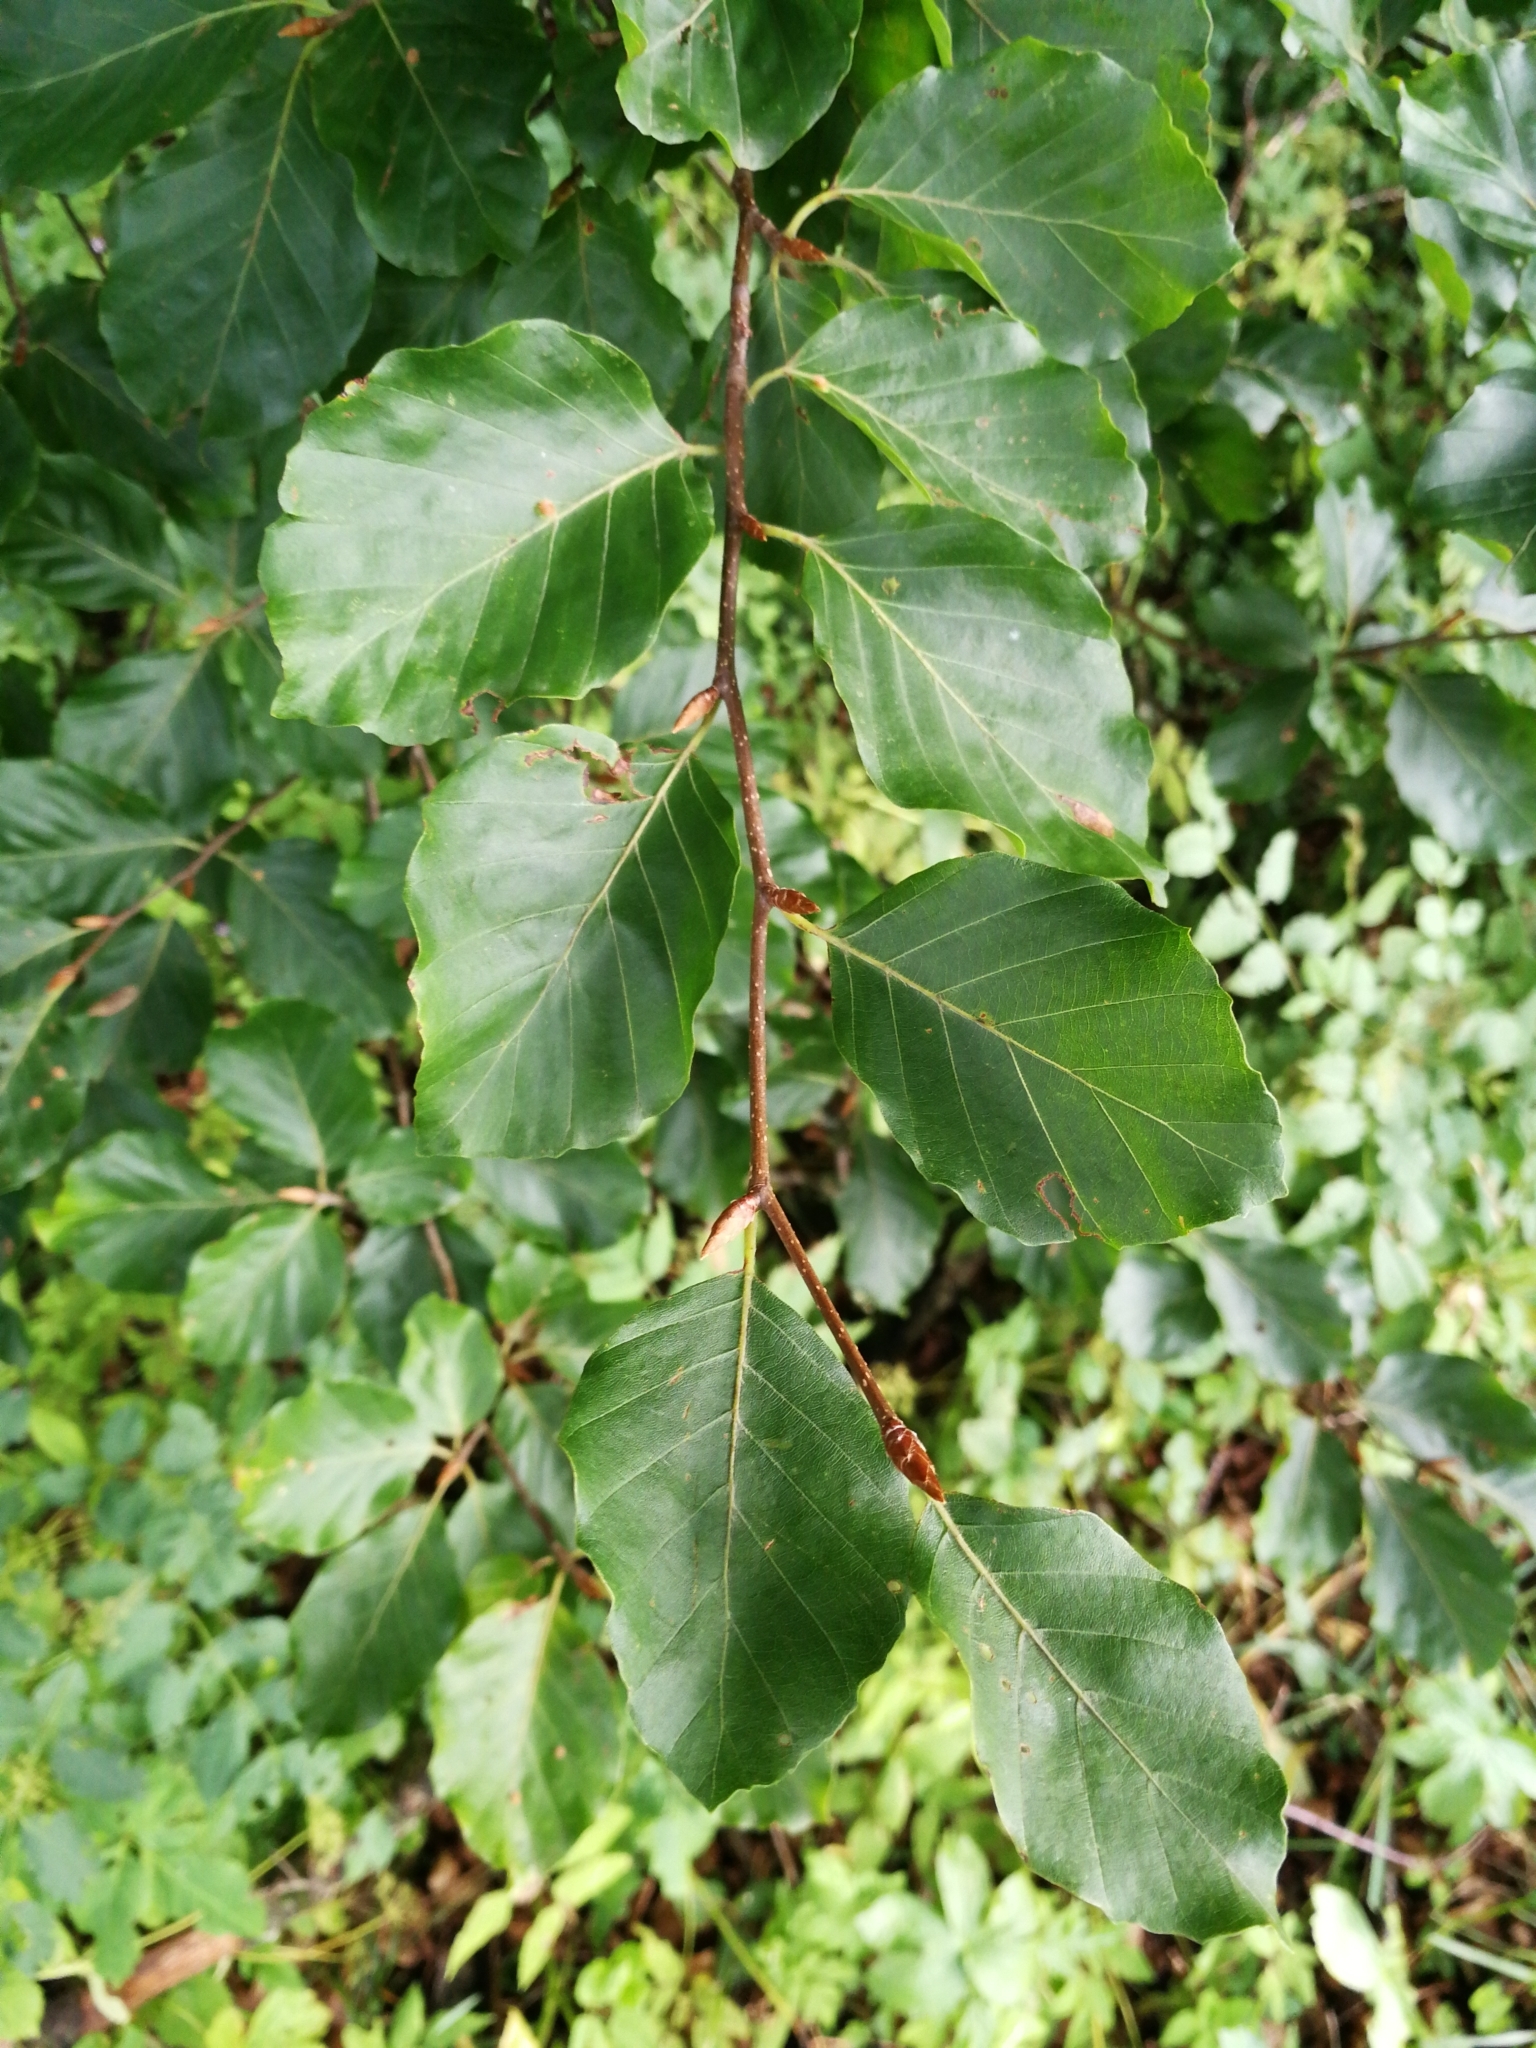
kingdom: Plantae
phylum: Tracheophyta
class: Magnoliopsida
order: Fagales
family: Fagaceae
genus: Fagus
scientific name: Fagus sylvatica
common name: Beech
